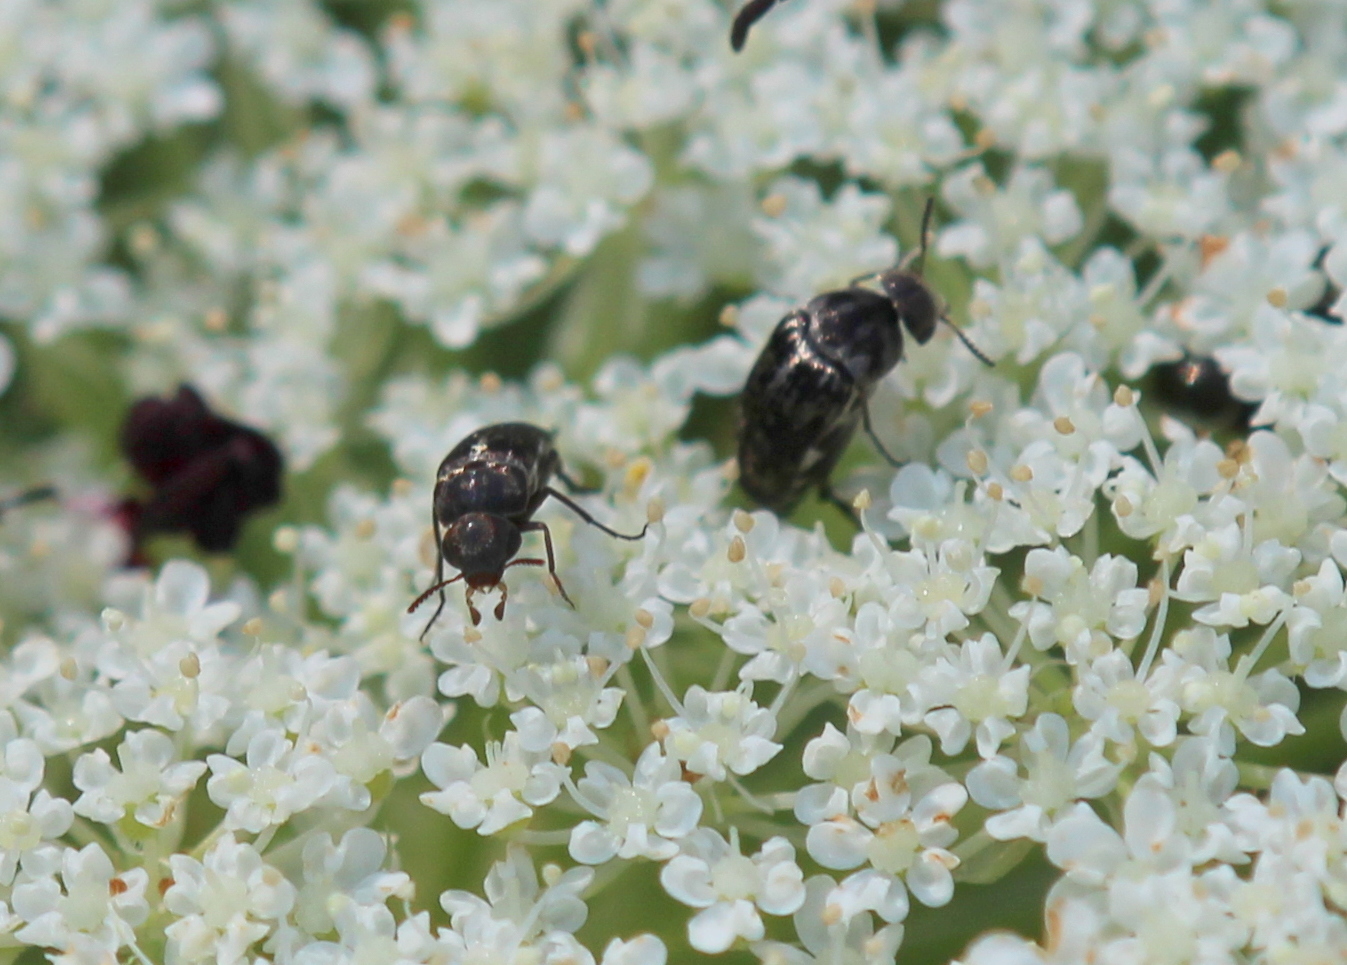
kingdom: Animalia
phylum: Arthropoda
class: Insecta
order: Coleoptera
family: Mordellidae
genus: Mordella
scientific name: Mordella marginata
